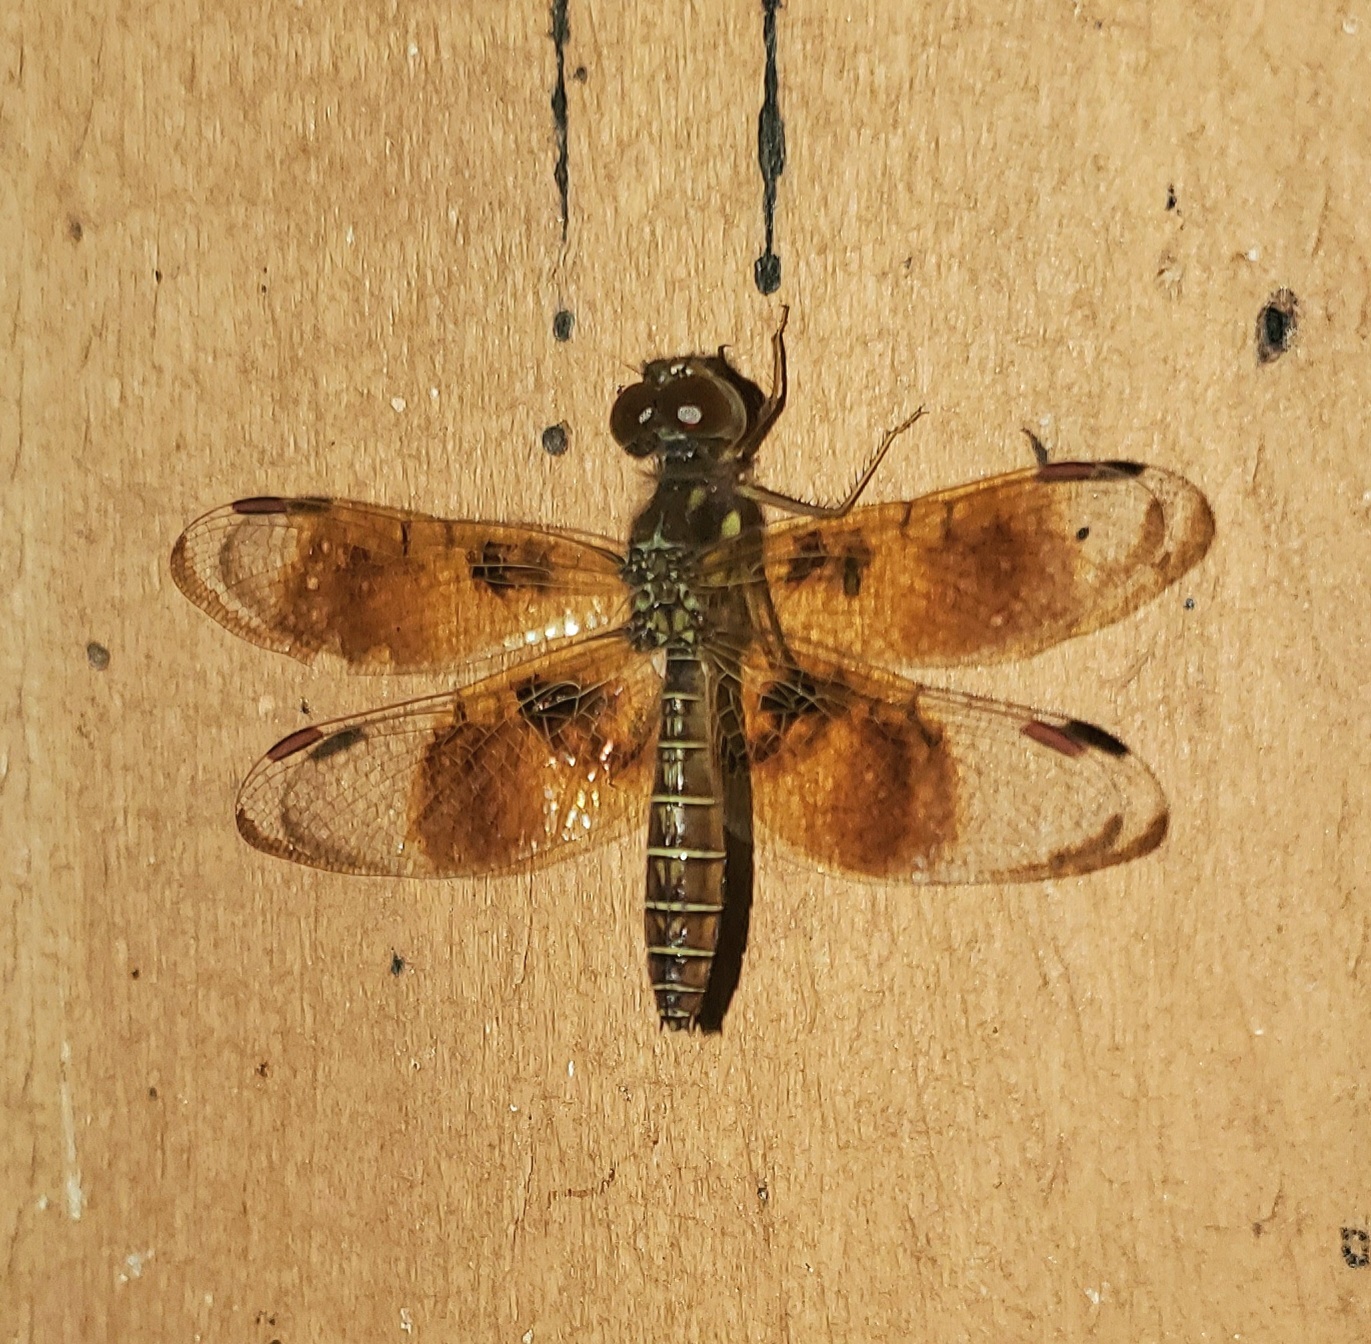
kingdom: Animalia
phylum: Arthropoda
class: Insecta
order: Odonata
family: Libellulidae
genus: Perithemis
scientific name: Perithemis tenera
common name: Eastern amberwing
